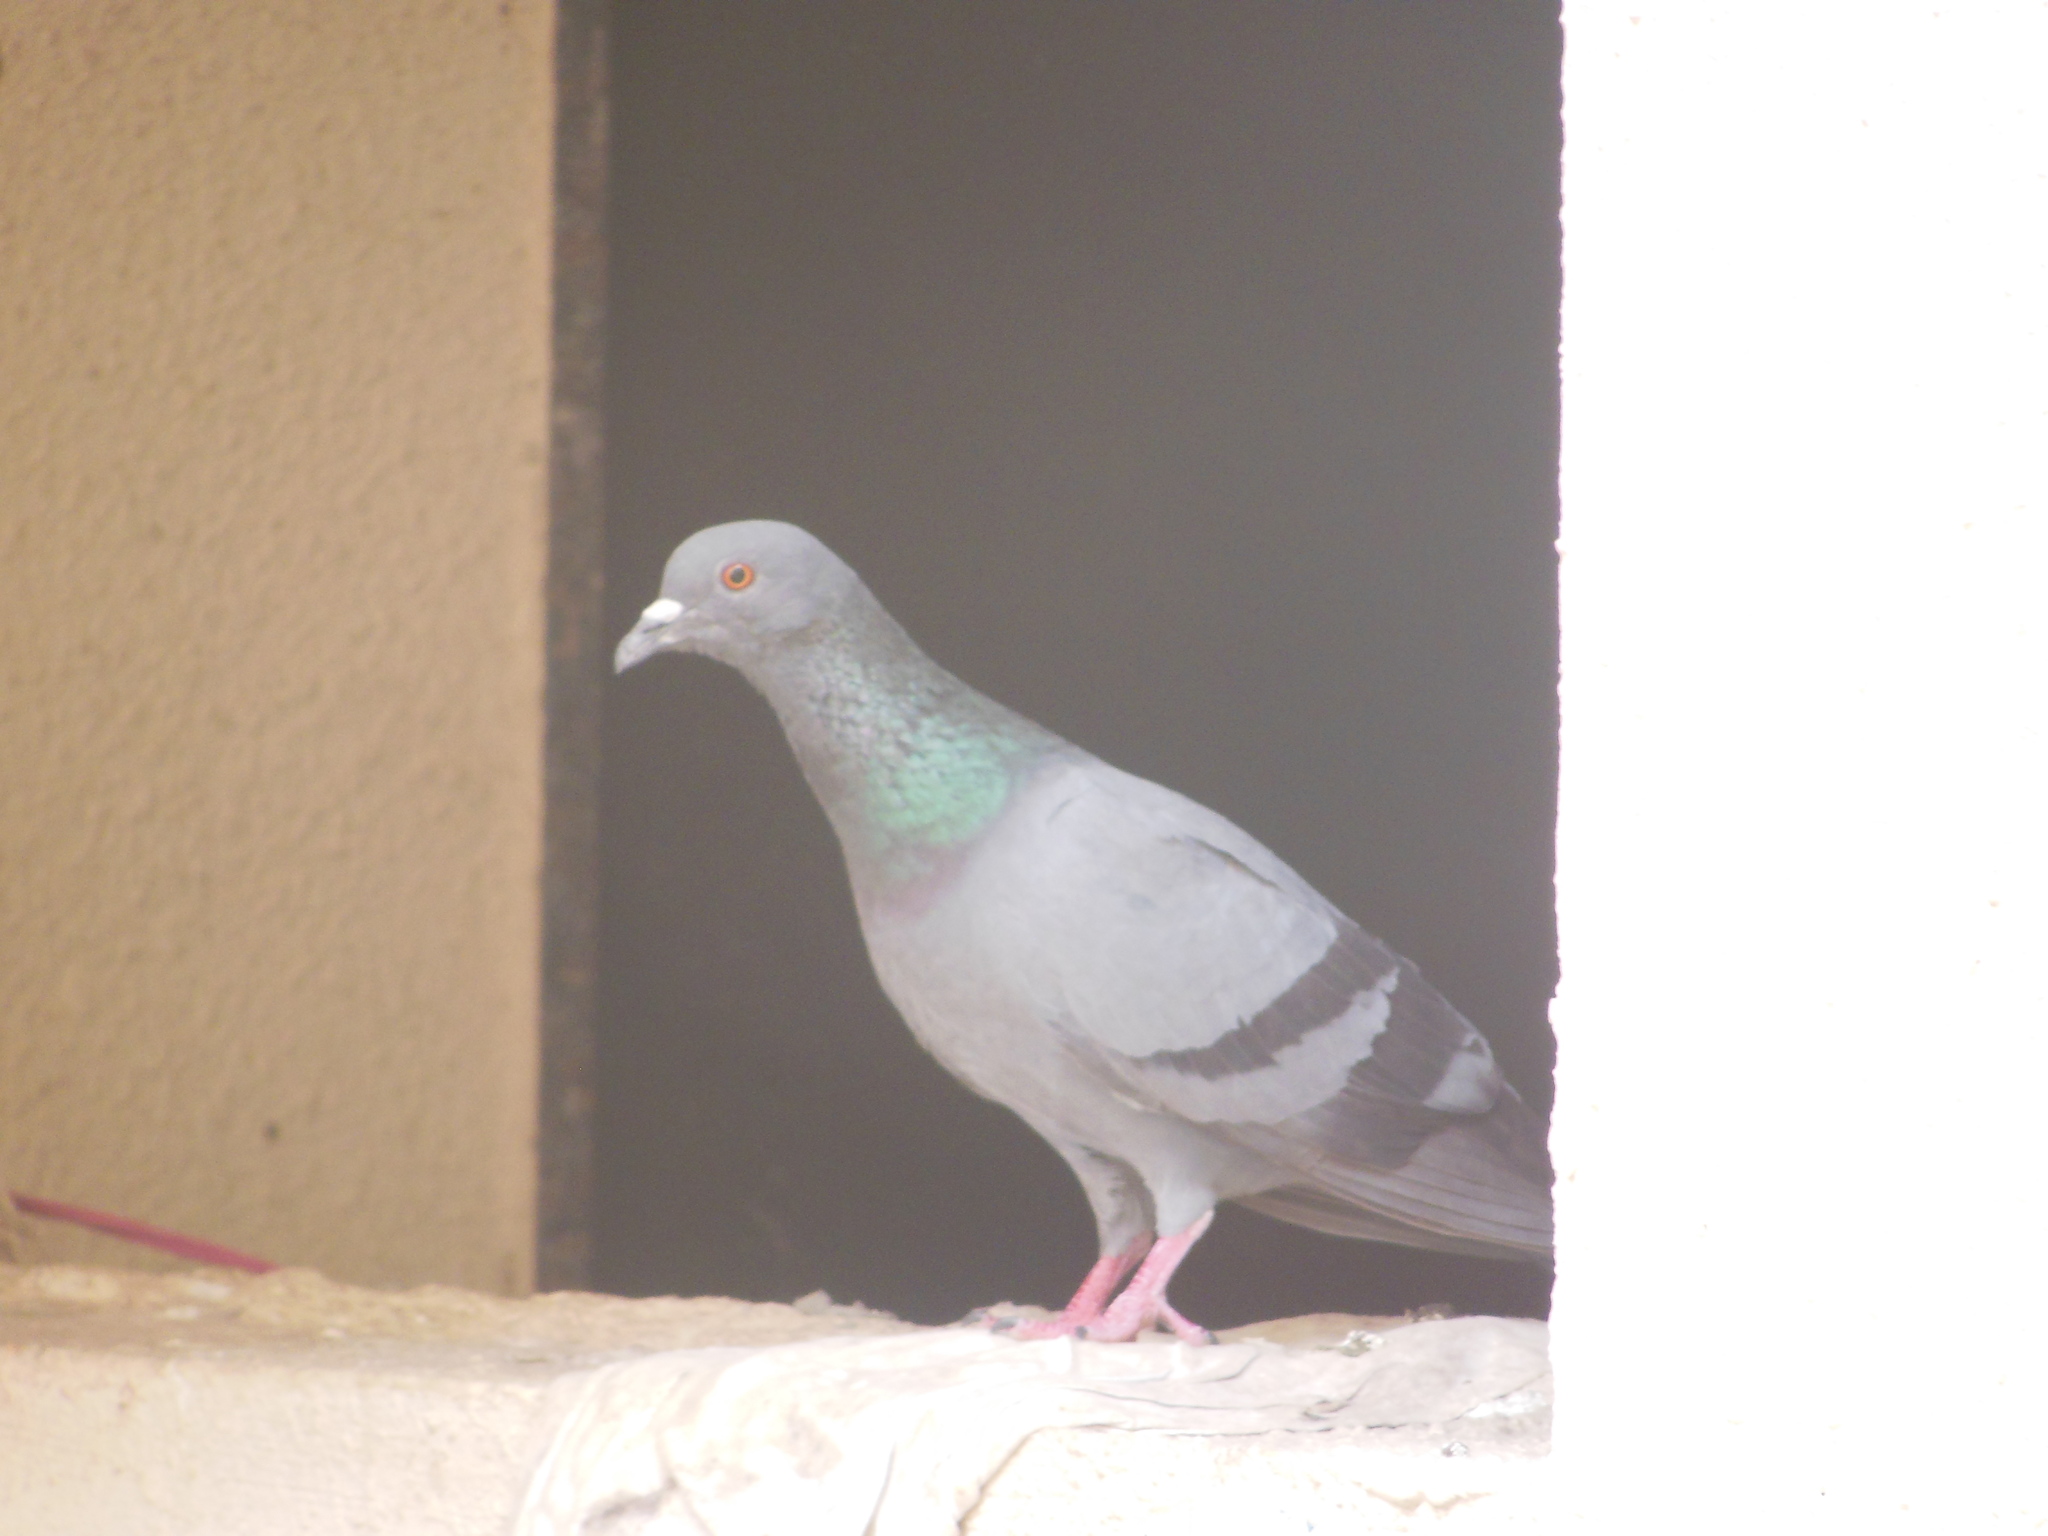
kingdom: Animalia
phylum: Chordata
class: Aves
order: Columbiformes
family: Columbidae
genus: Columba
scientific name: Columba livia
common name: Rock pigeon
